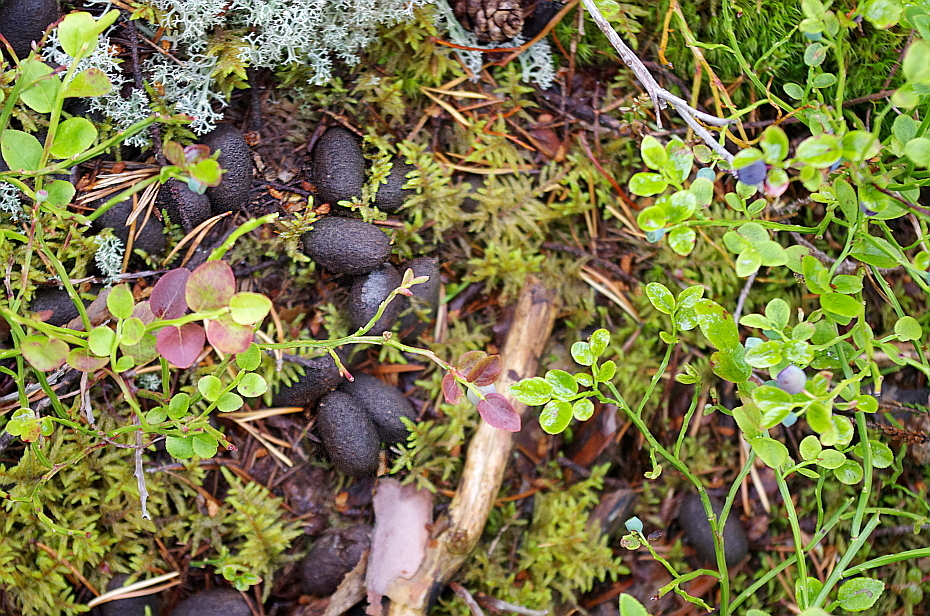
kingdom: Animalia
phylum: Chordata
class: Mammalia
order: Artiodactyla
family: Cervidae
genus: Alces
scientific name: Alces alces
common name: Moose
